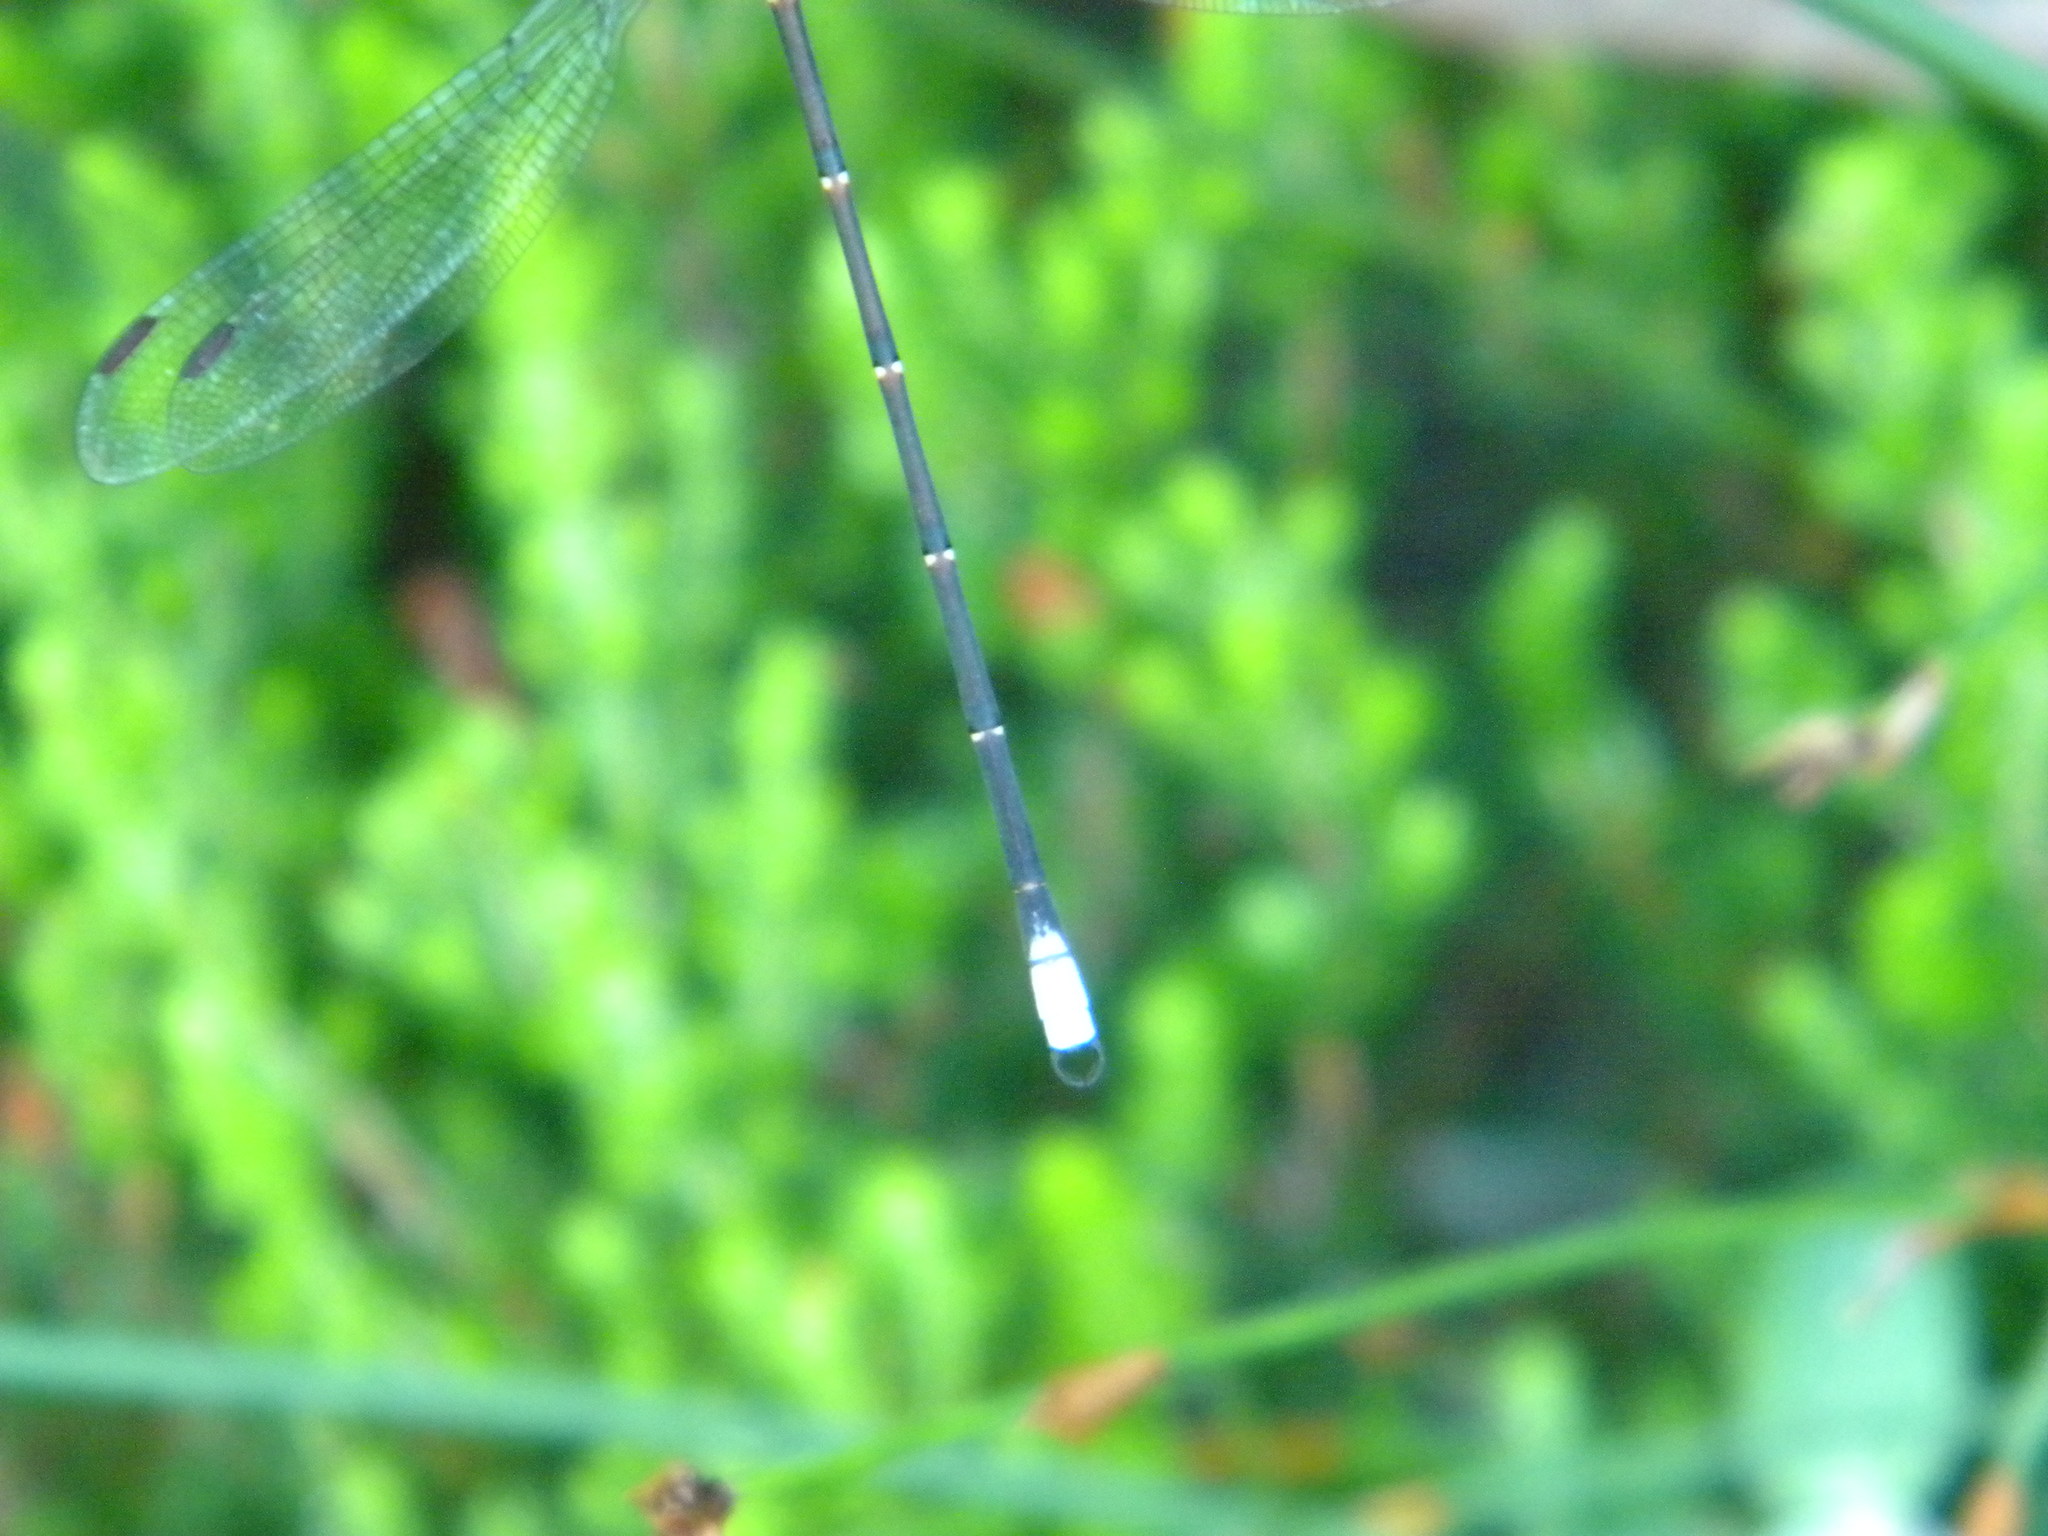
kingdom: Animalia
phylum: Arthropoda
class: Insecta
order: Odonata
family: Synlestidae
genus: Chlorolestes
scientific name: Chlorolestes conspicuus
